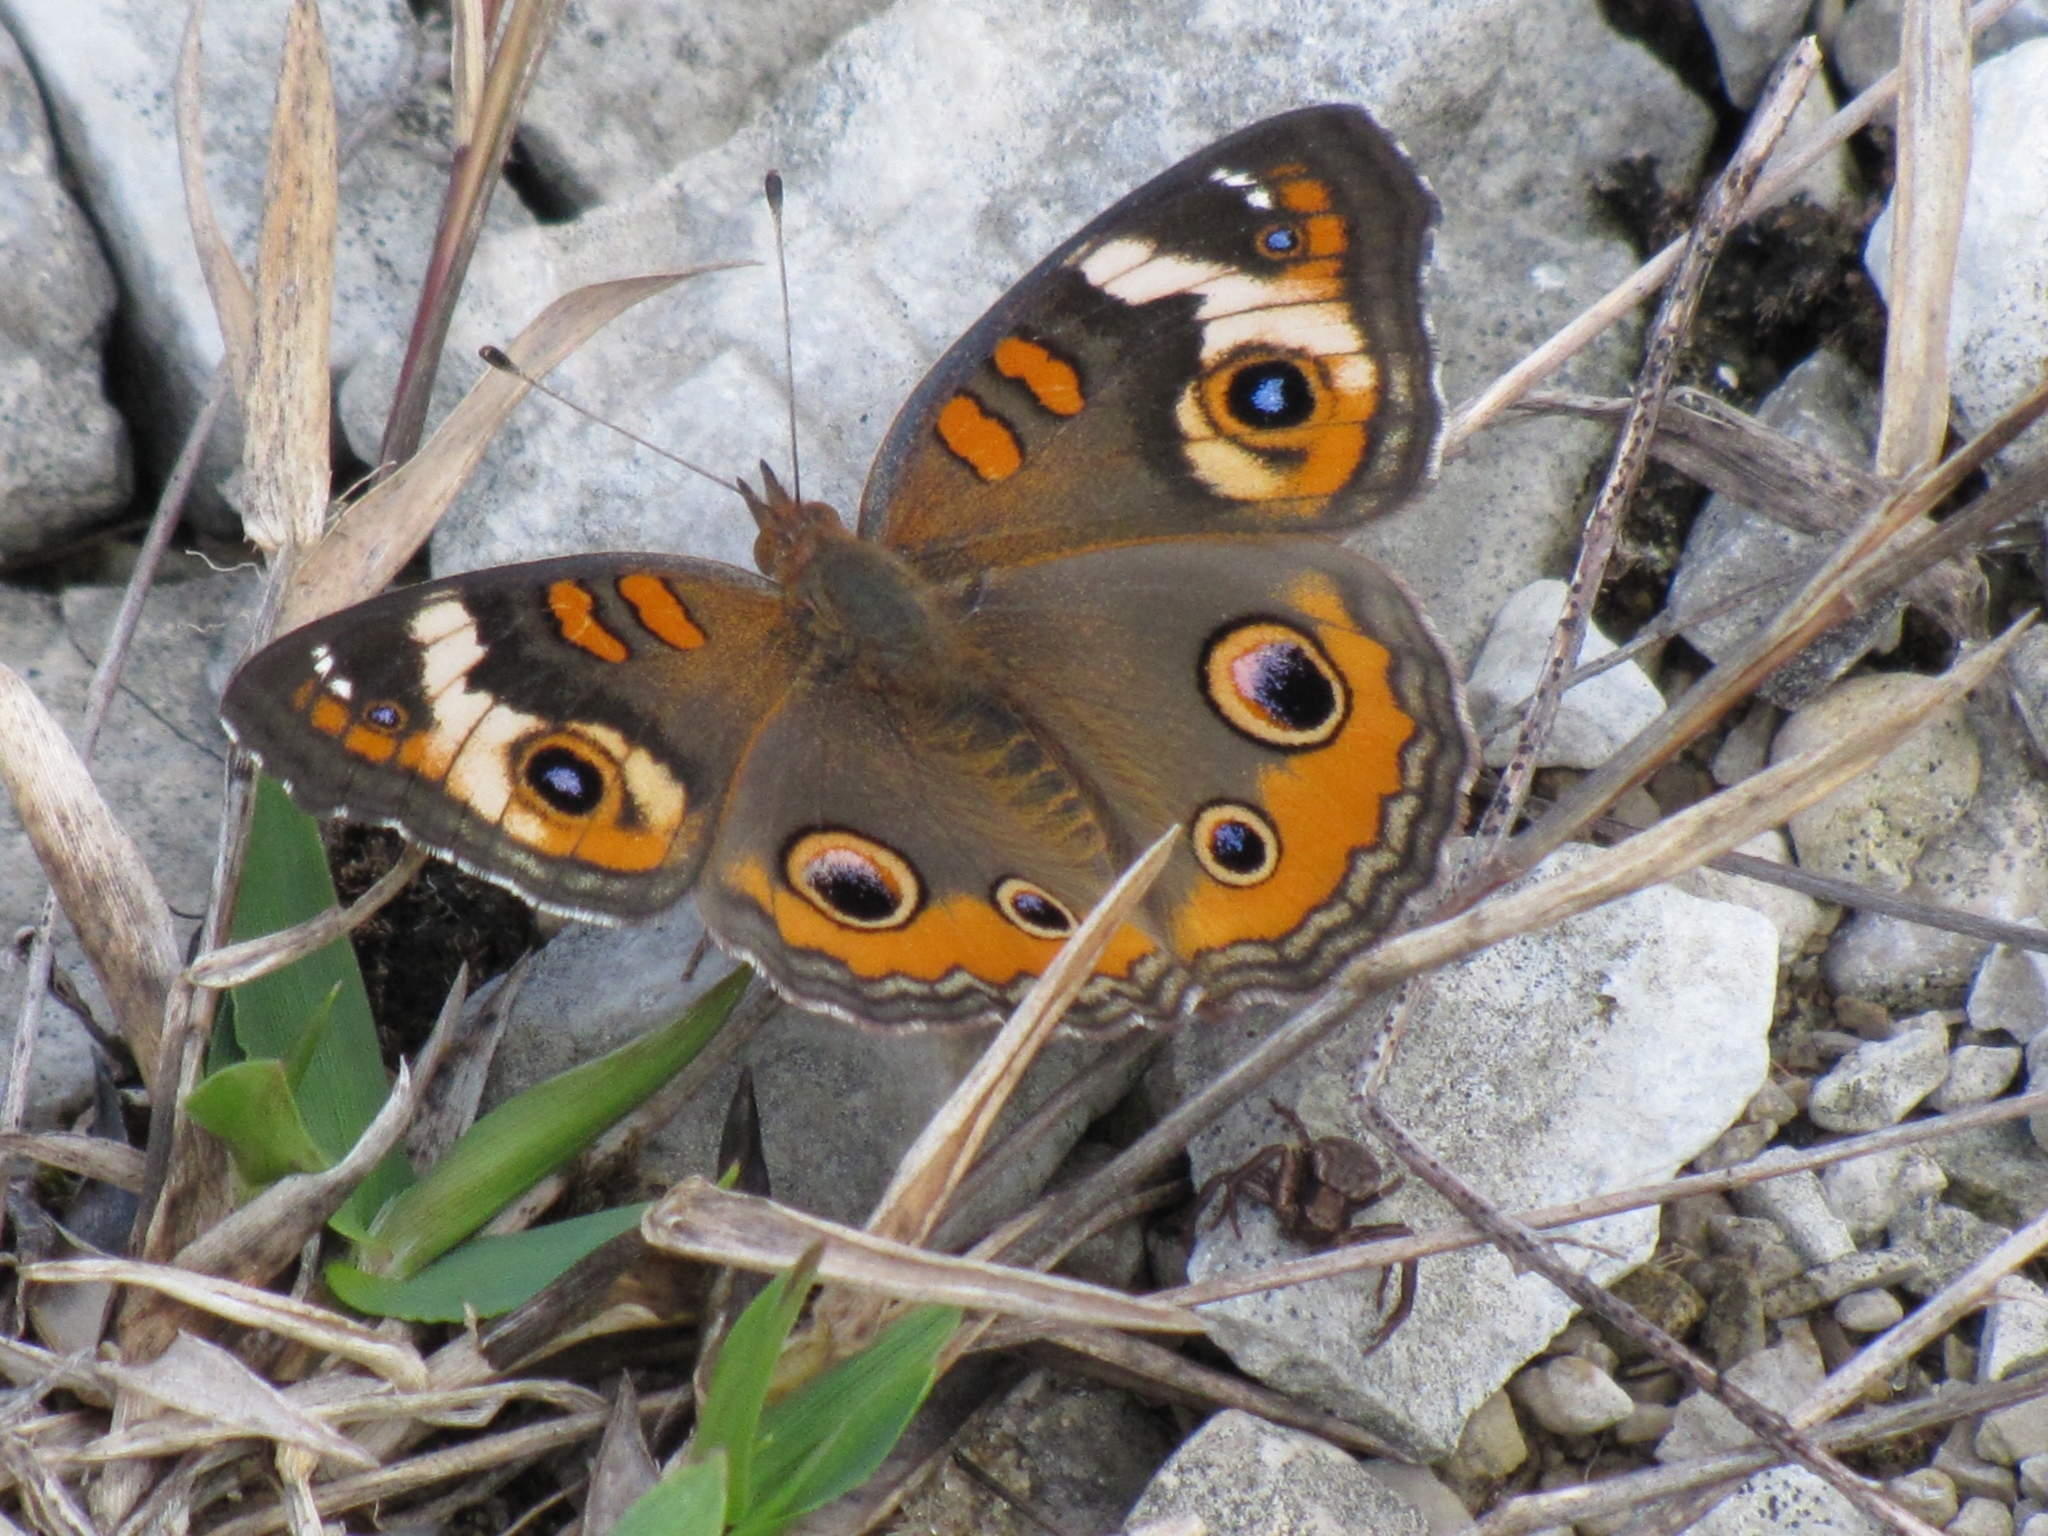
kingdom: Animalia
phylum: Arthropoda
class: Insecta
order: Lepidoptera
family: Nymphalidae
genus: Junonia
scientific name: Junonia coenia
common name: Common buckeye
